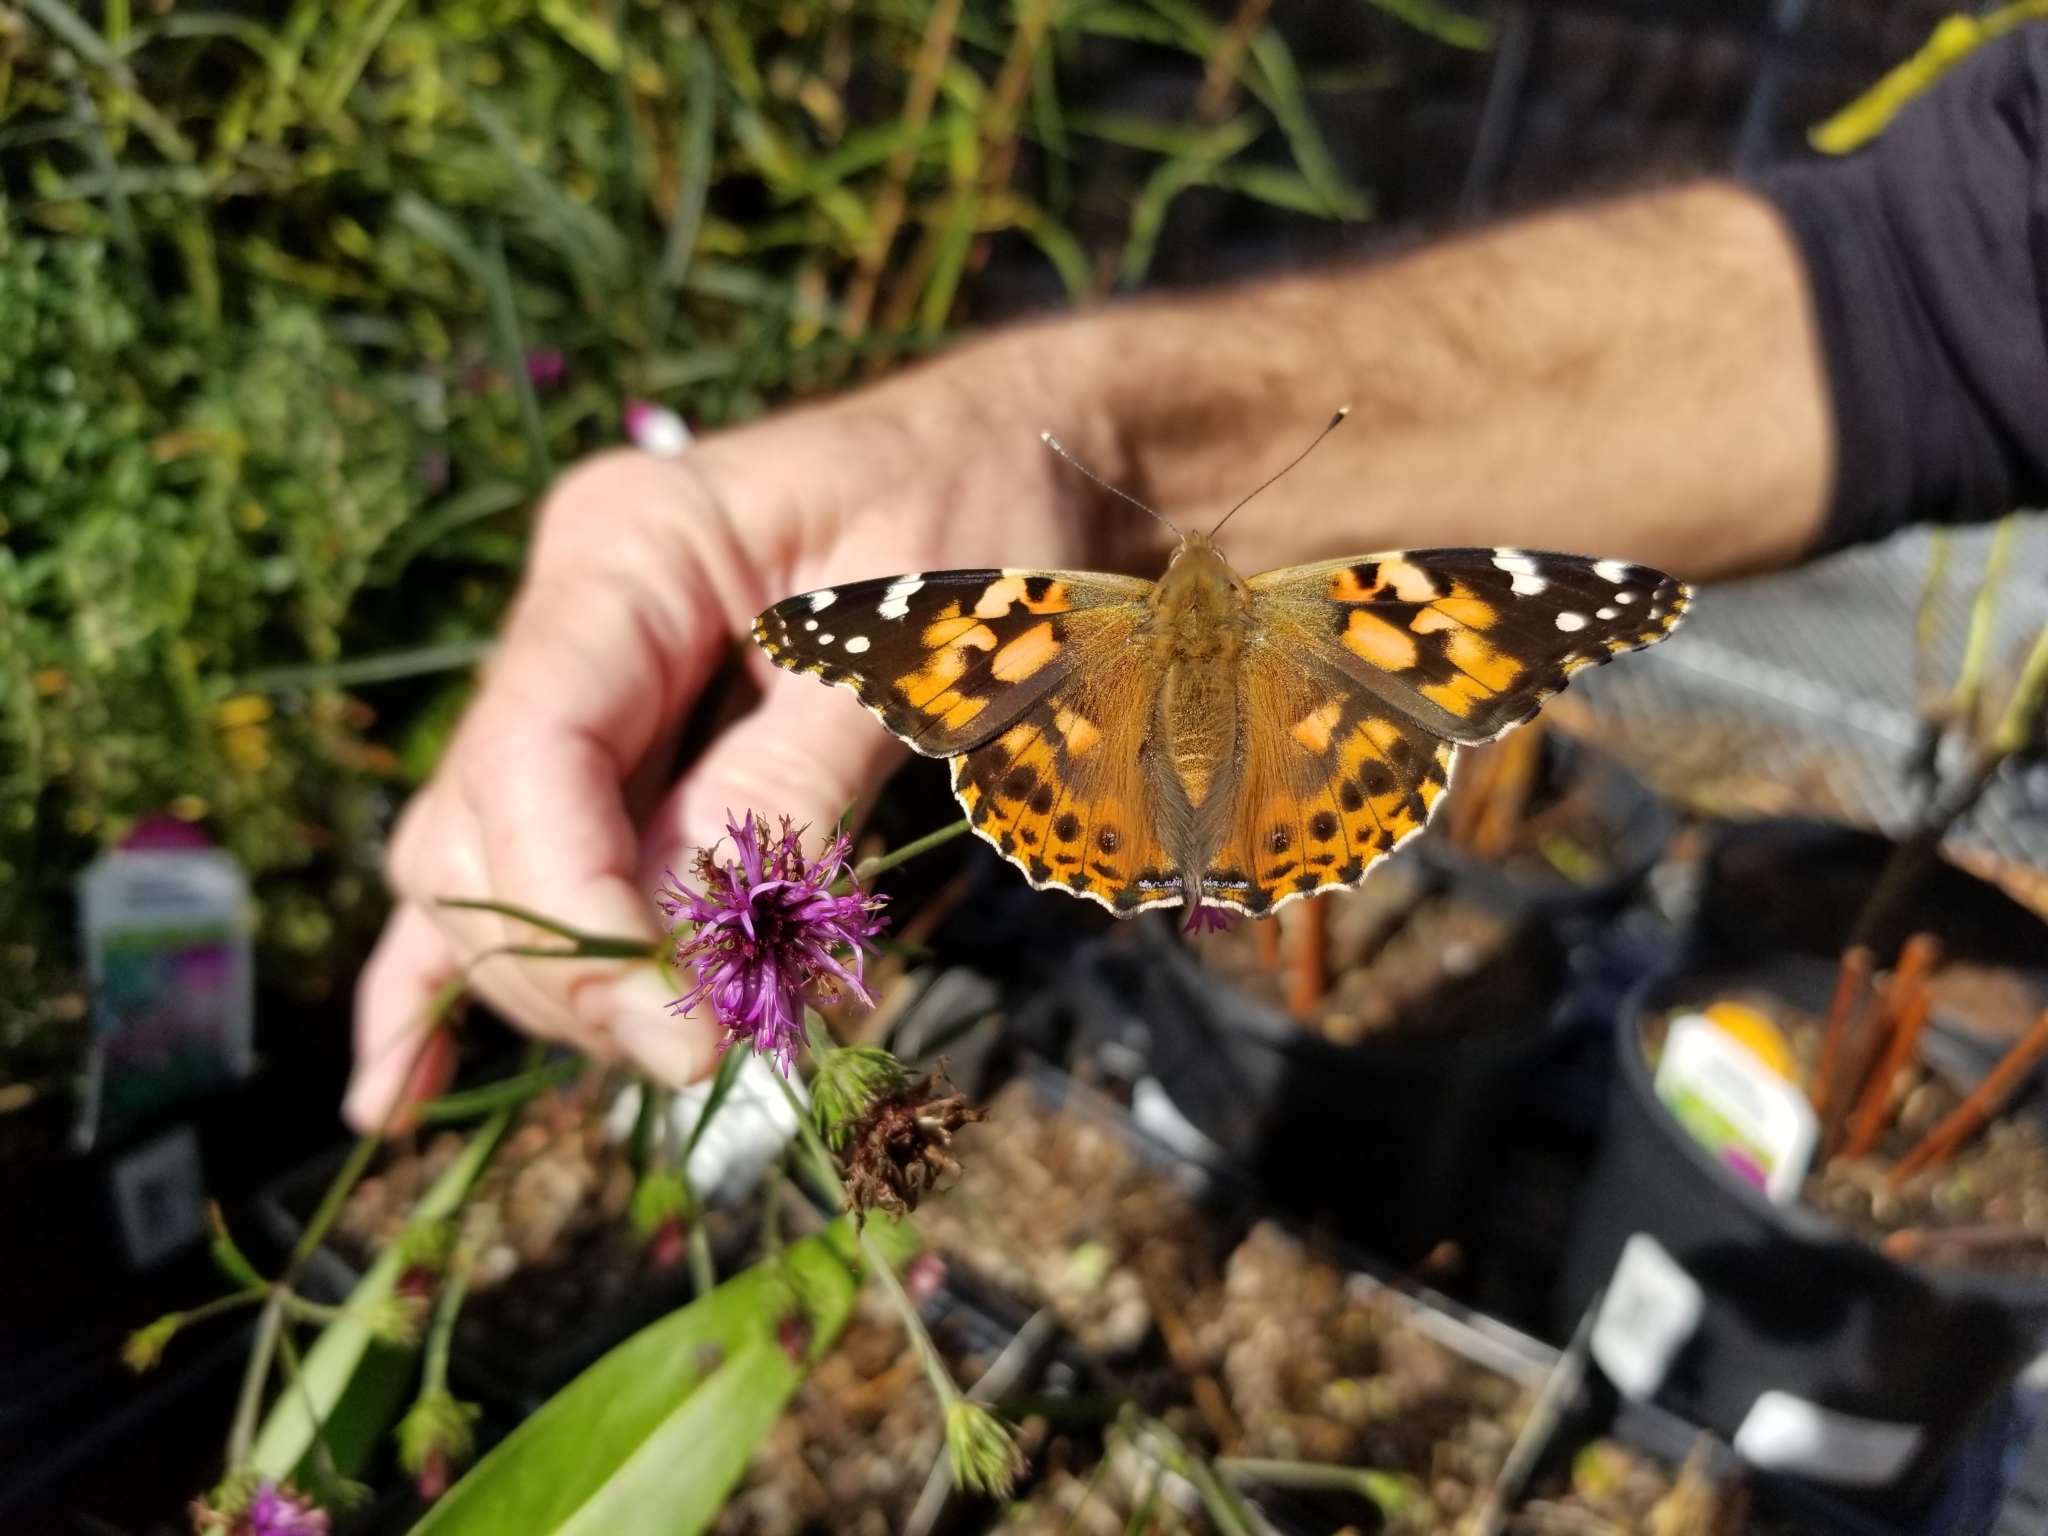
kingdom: Animalia
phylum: Arthropoda
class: Insecta
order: Lepidoptera
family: Nymphalidae
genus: Vanessa
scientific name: Vanessa cardui
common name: Painted lady
